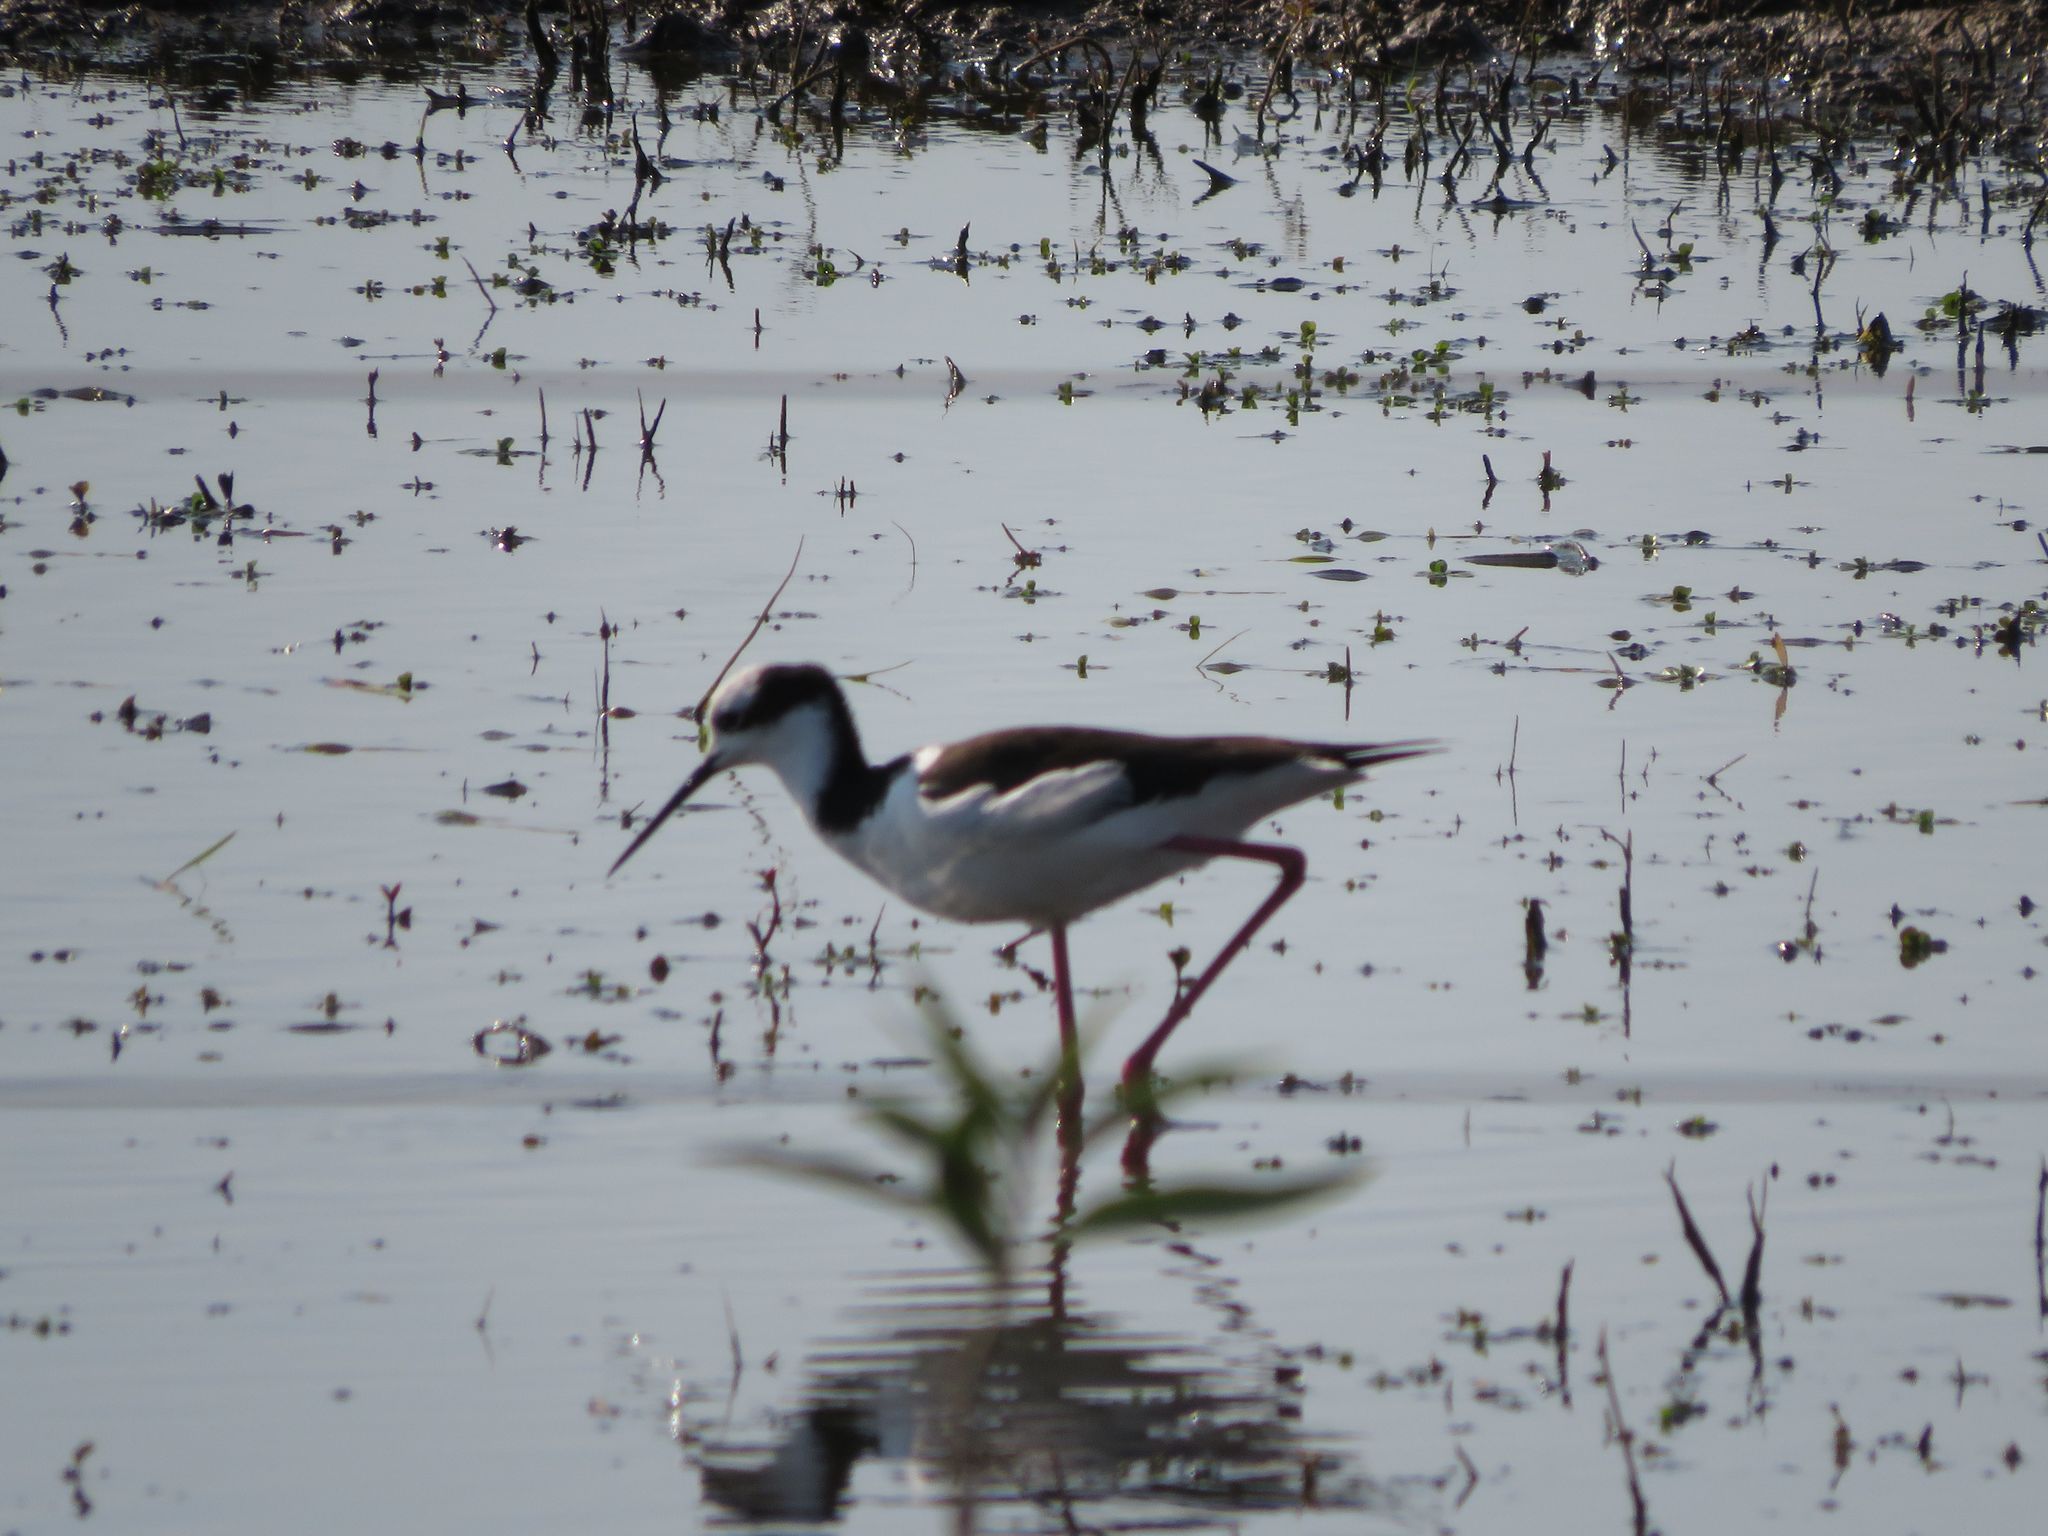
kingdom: Animalia
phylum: Chordata
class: Aves
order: Charadriiformes
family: Recurvirostridae
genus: Himantopus
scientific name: Himantopus mexicanus
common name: Black-necked stilt
